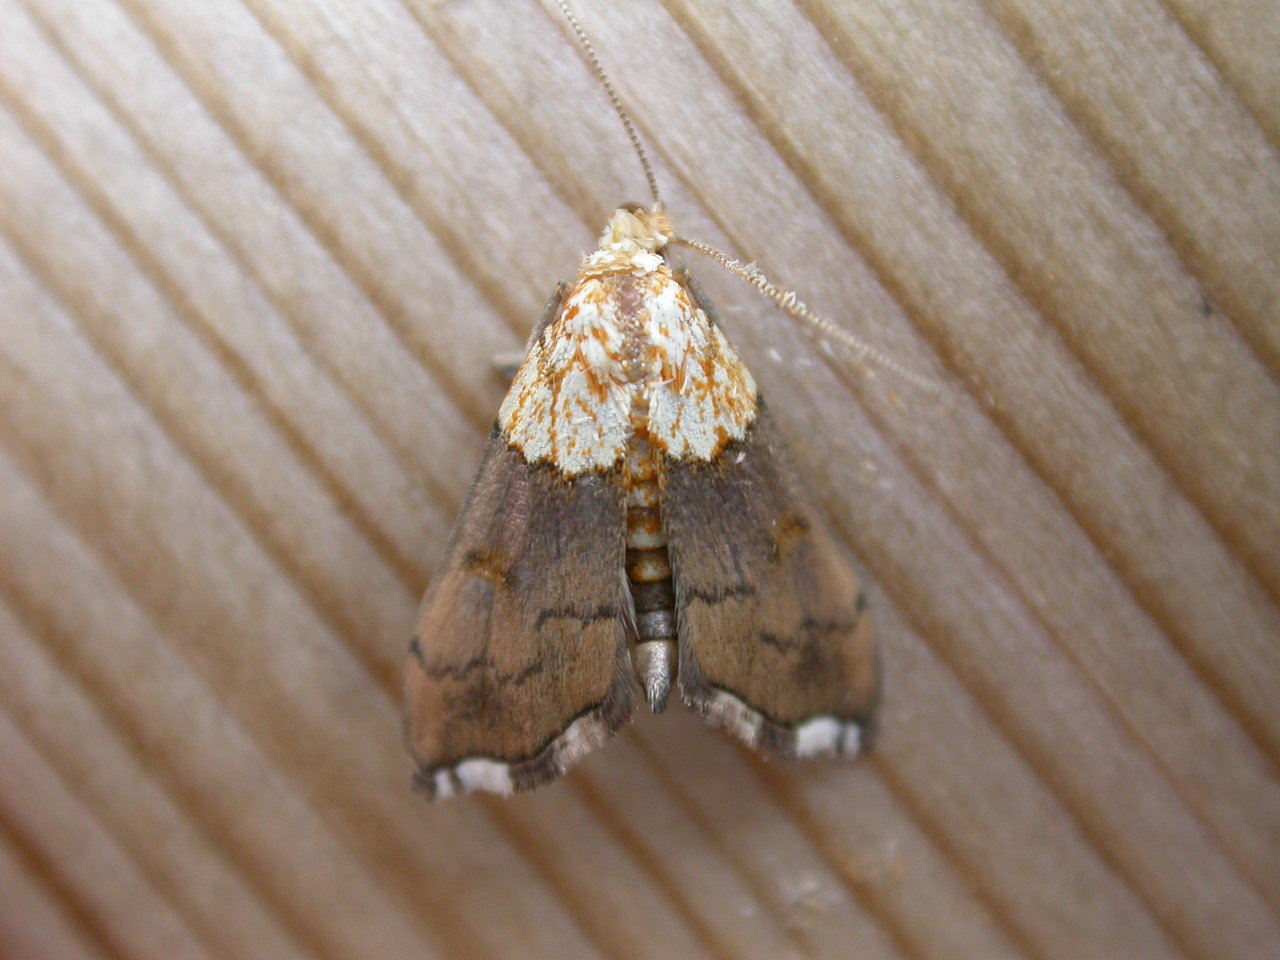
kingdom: Animalia
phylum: Arthropoda
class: Insecta
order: Lepidoptera
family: Crambidae
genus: Agrotera
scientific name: Agrotera nemoralis
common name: Beautiful pearl
